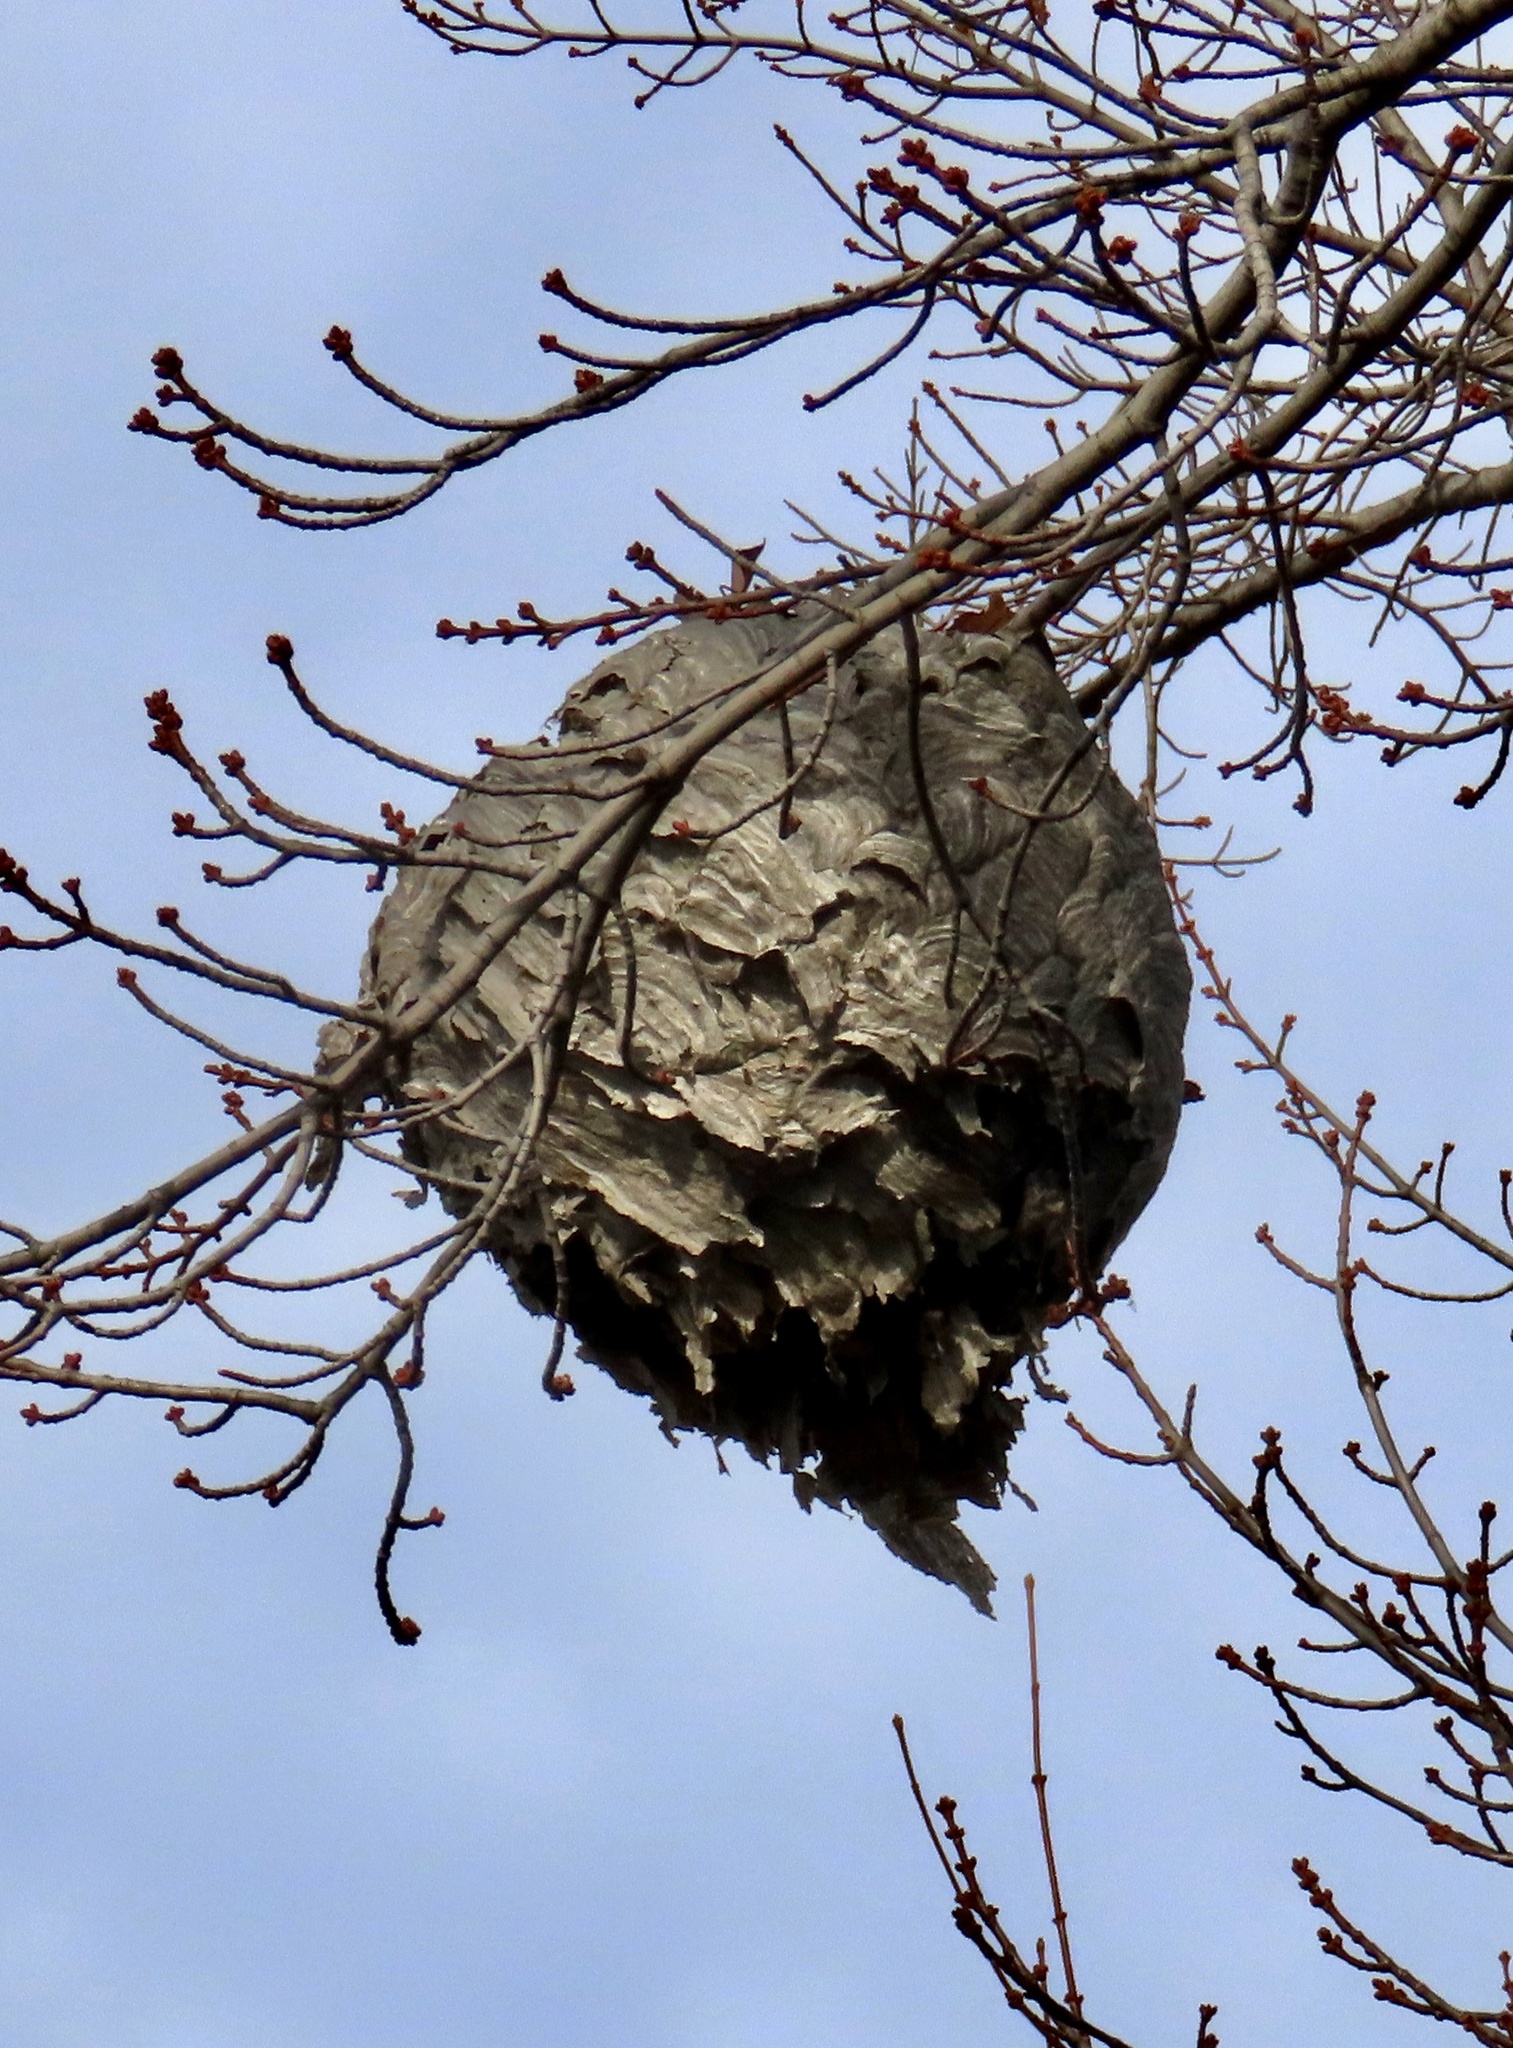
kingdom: Animalia
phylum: Arthropoda
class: Insecta
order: Hymenoptera
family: Vespidae
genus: Dolichovespula
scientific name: Dolichovespula maculata
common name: Bald-faced hornet
